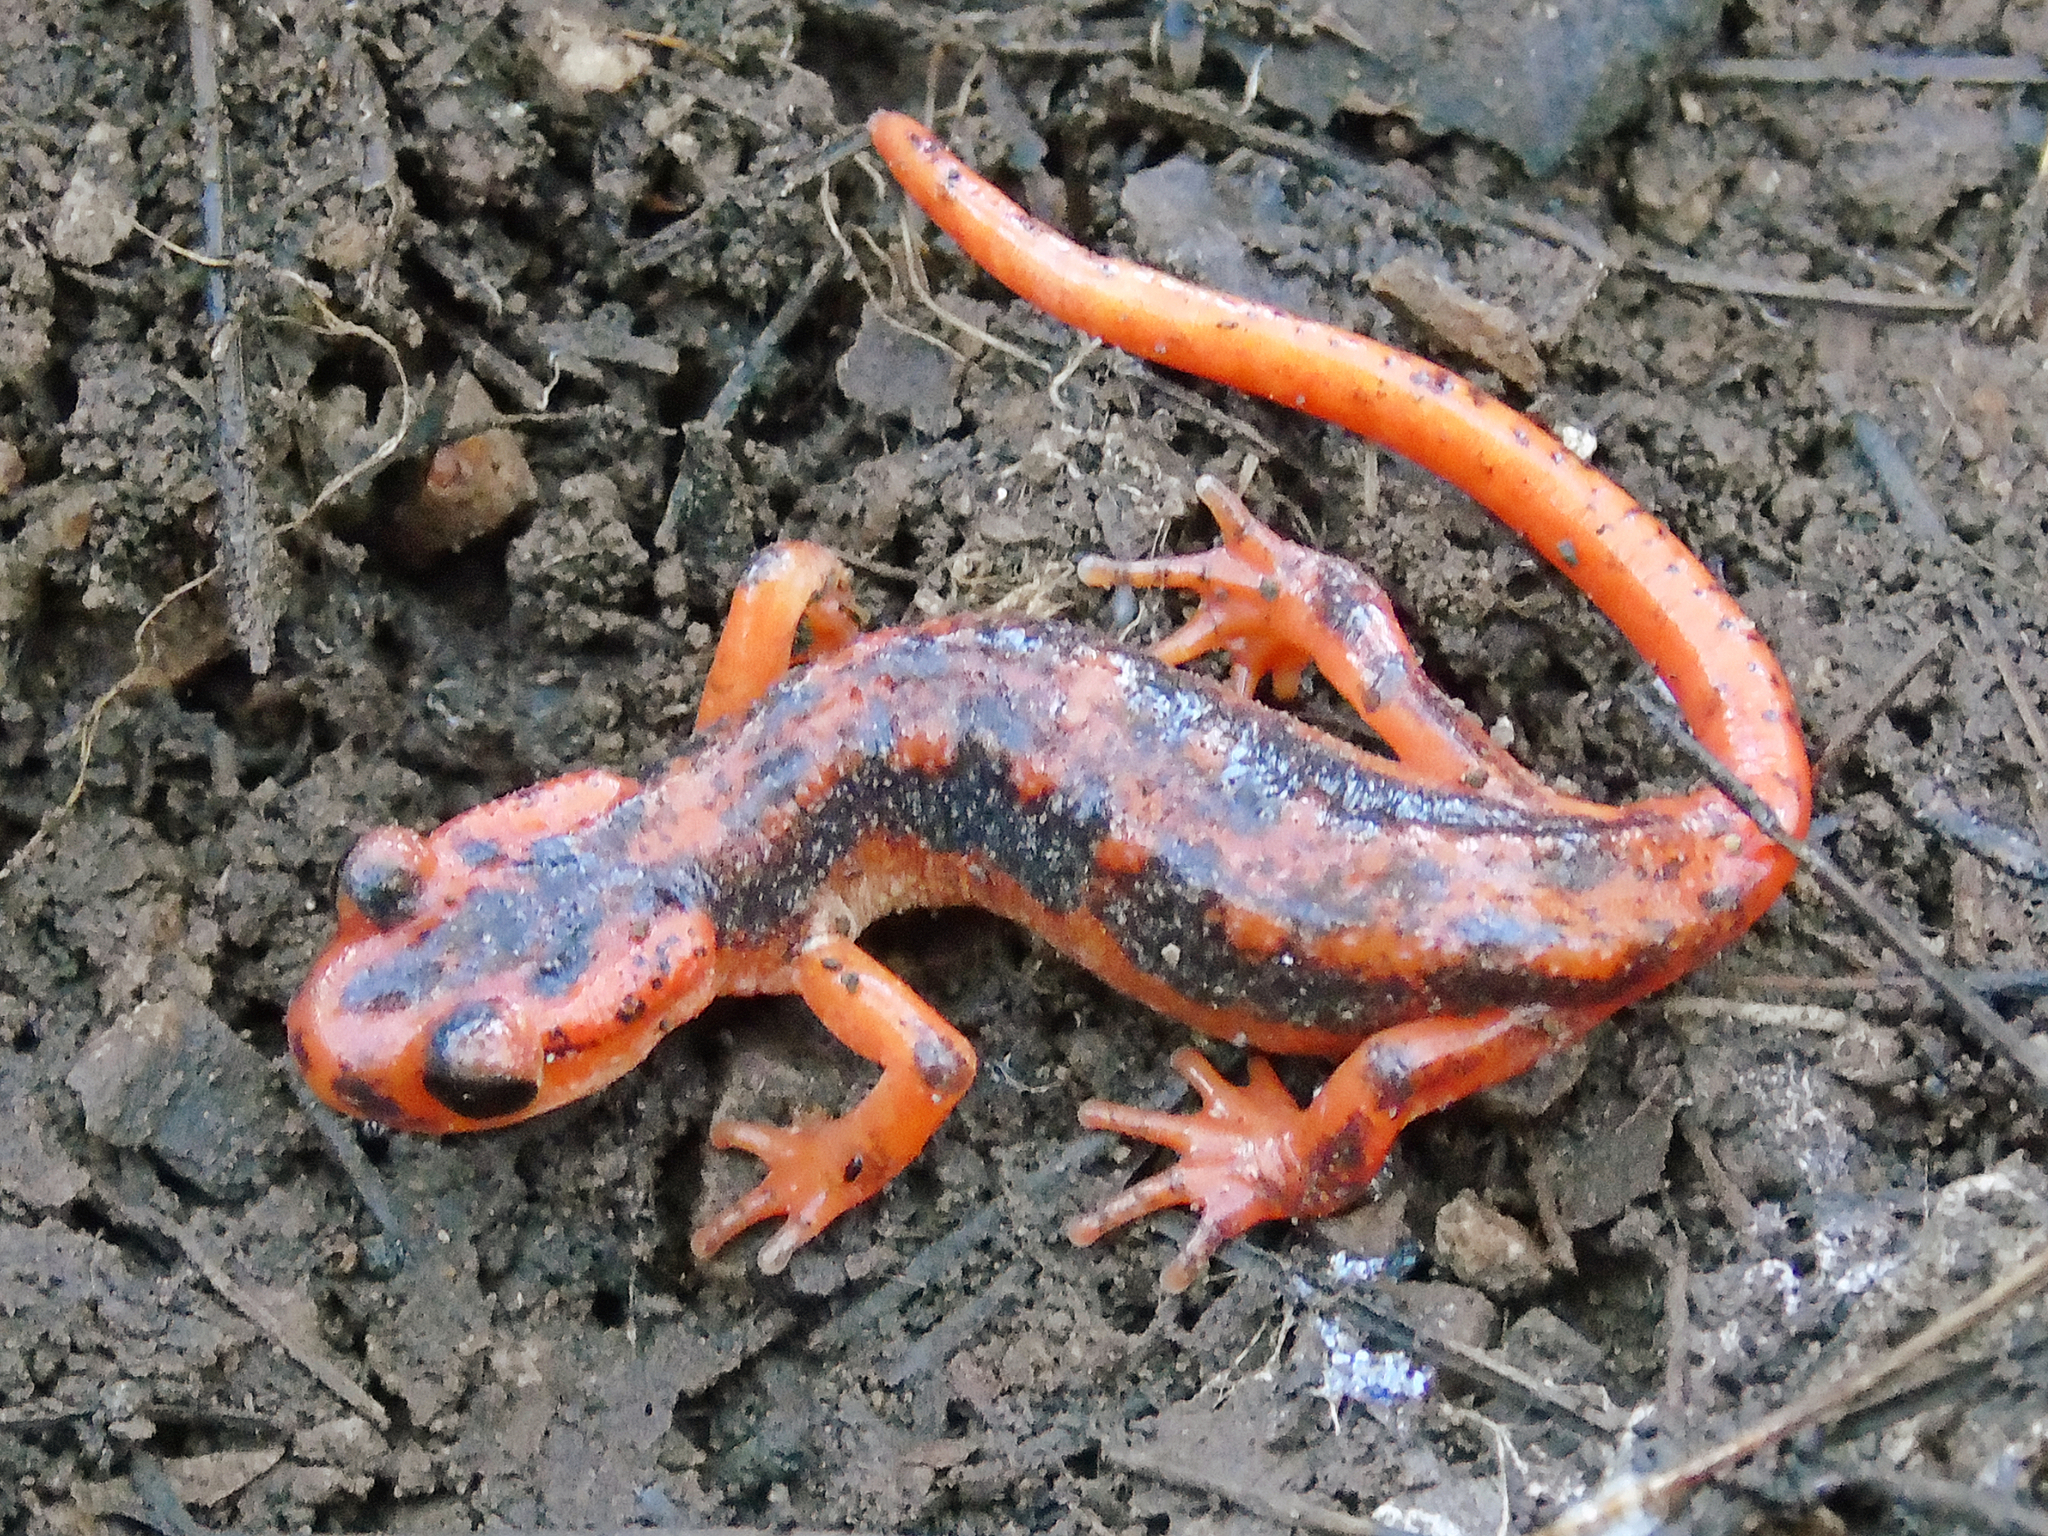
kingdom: Animalia
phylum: Chordata
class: Amphibia
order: Caudata
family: Salamandridae
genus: Lyciasalamandra
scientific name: Lyciasalamandra fazilae
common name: Fazila's salamander
